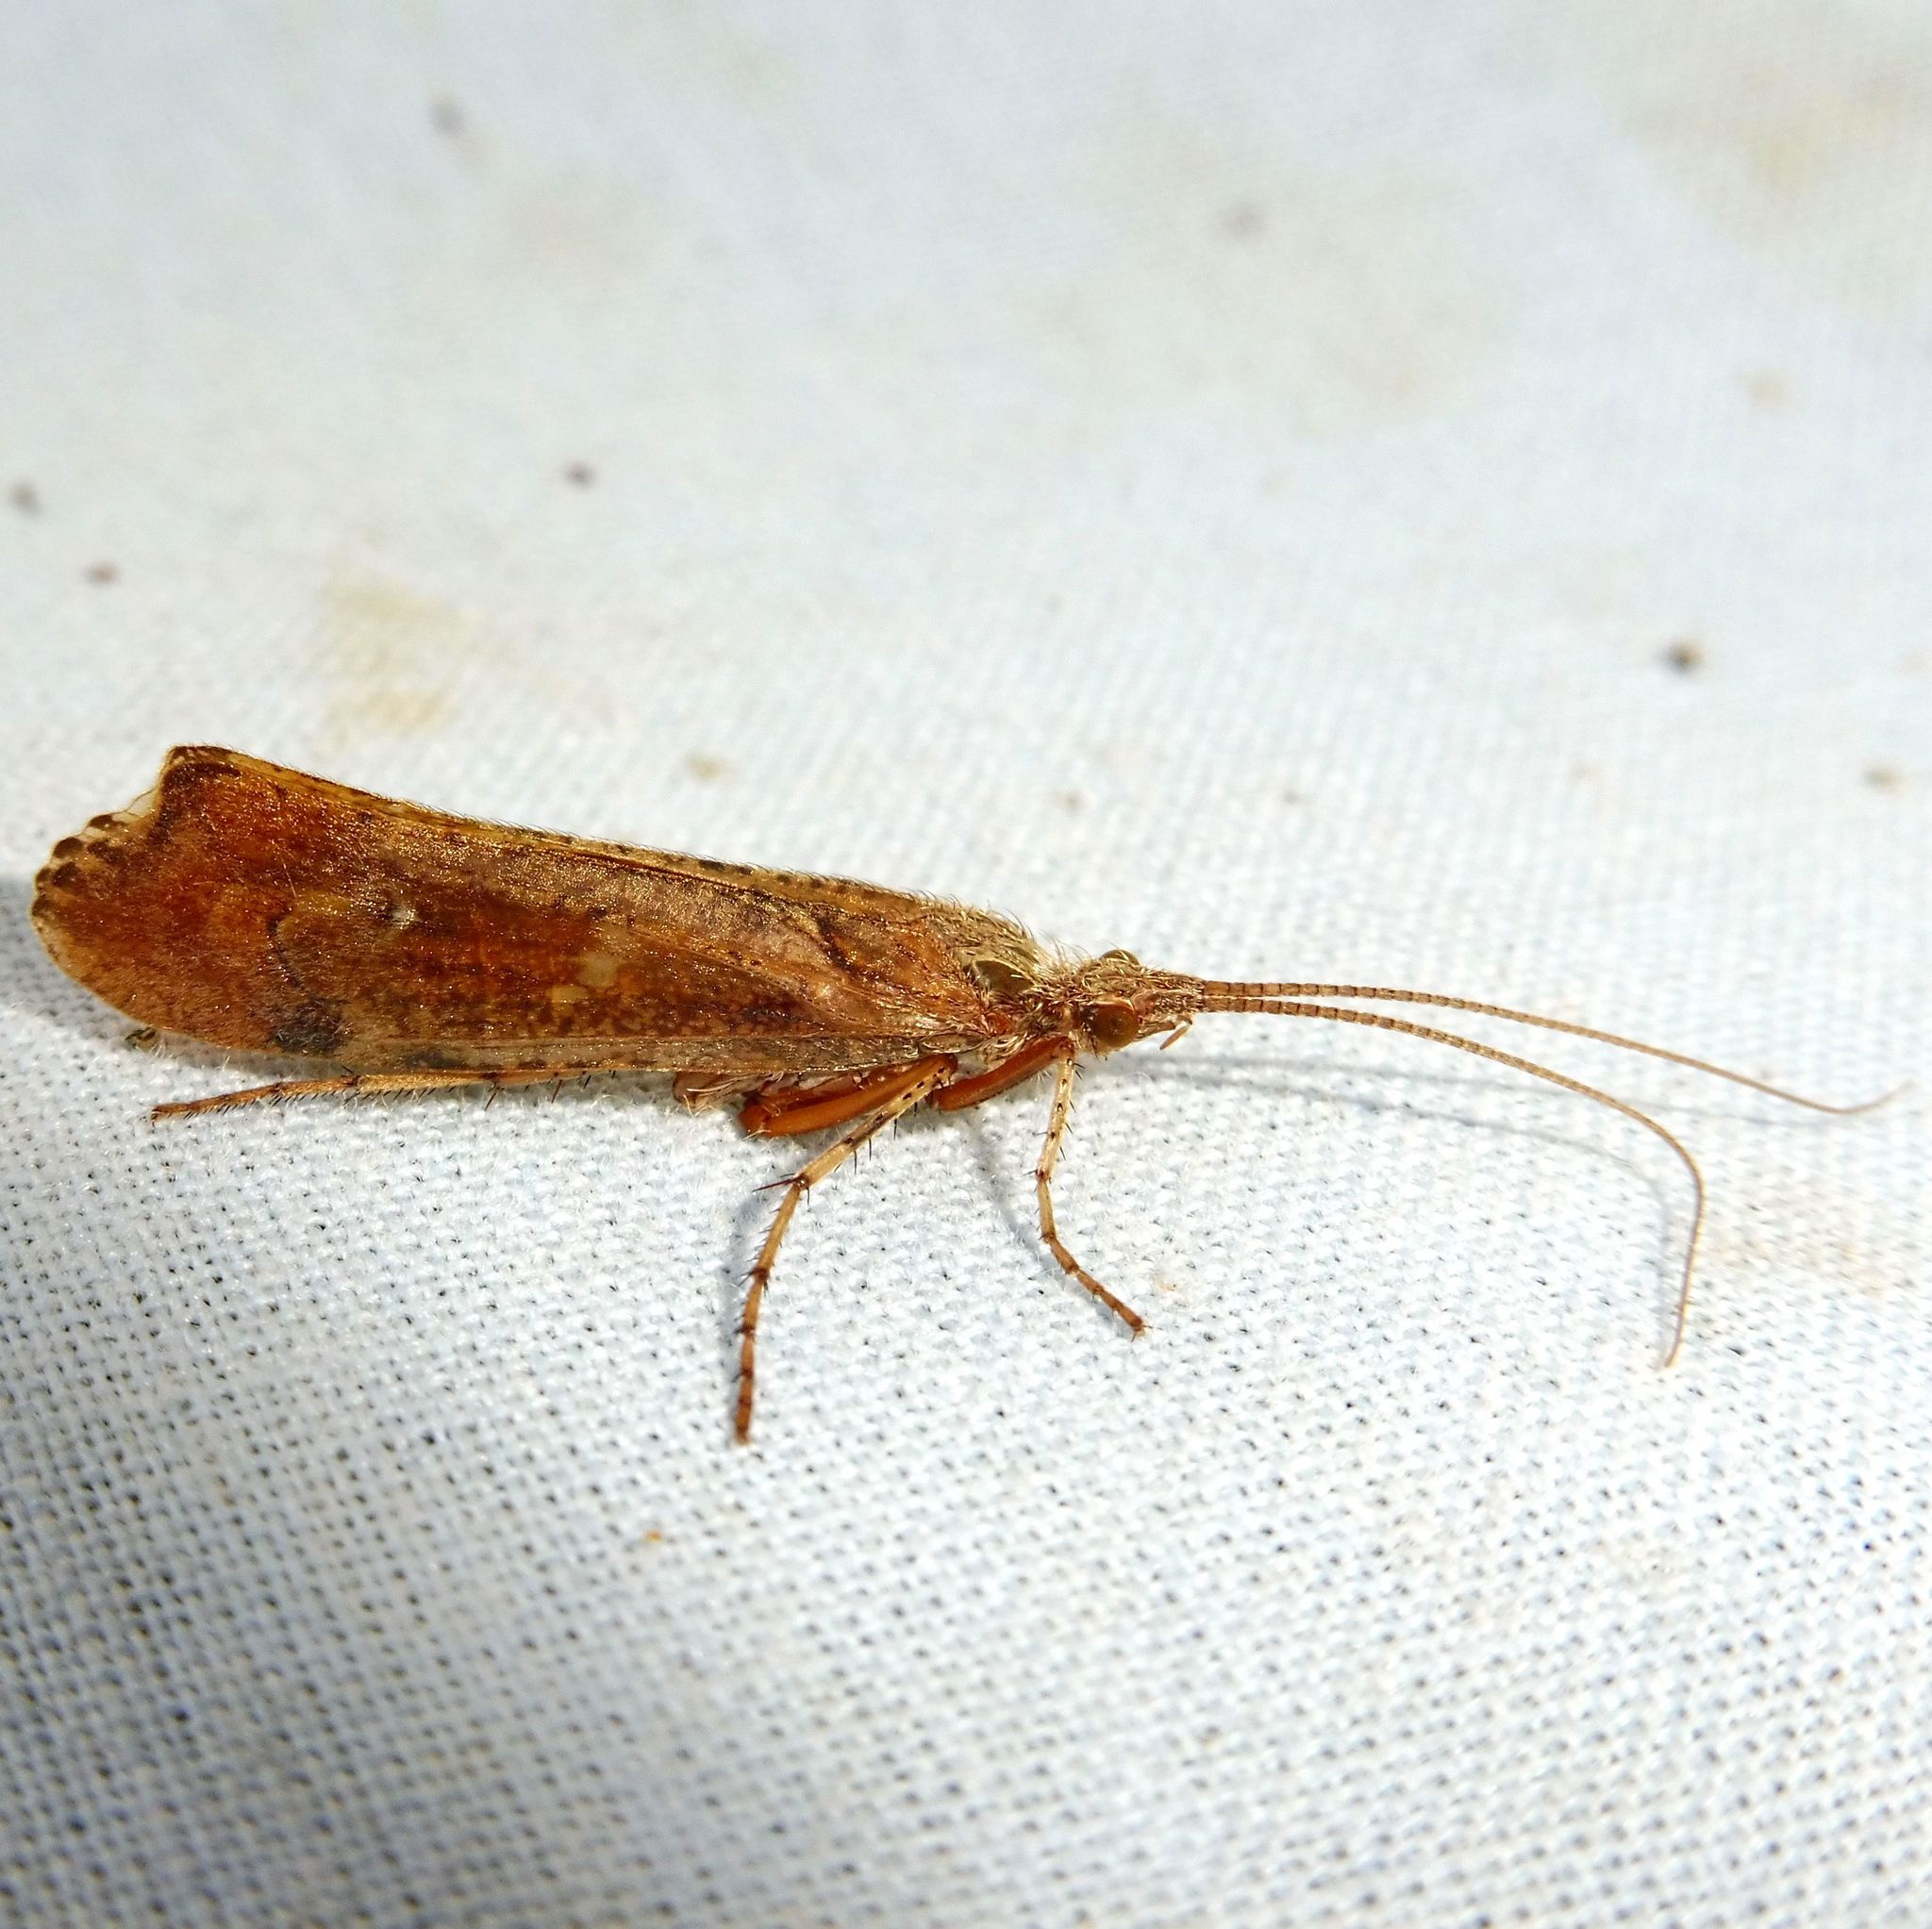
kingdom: Animalia
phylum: Arthropoda
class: Insecta
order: Trichoptera
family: Limnephilidae
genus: Glyphotaelius
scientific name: Glyphotaelius pellucidus
